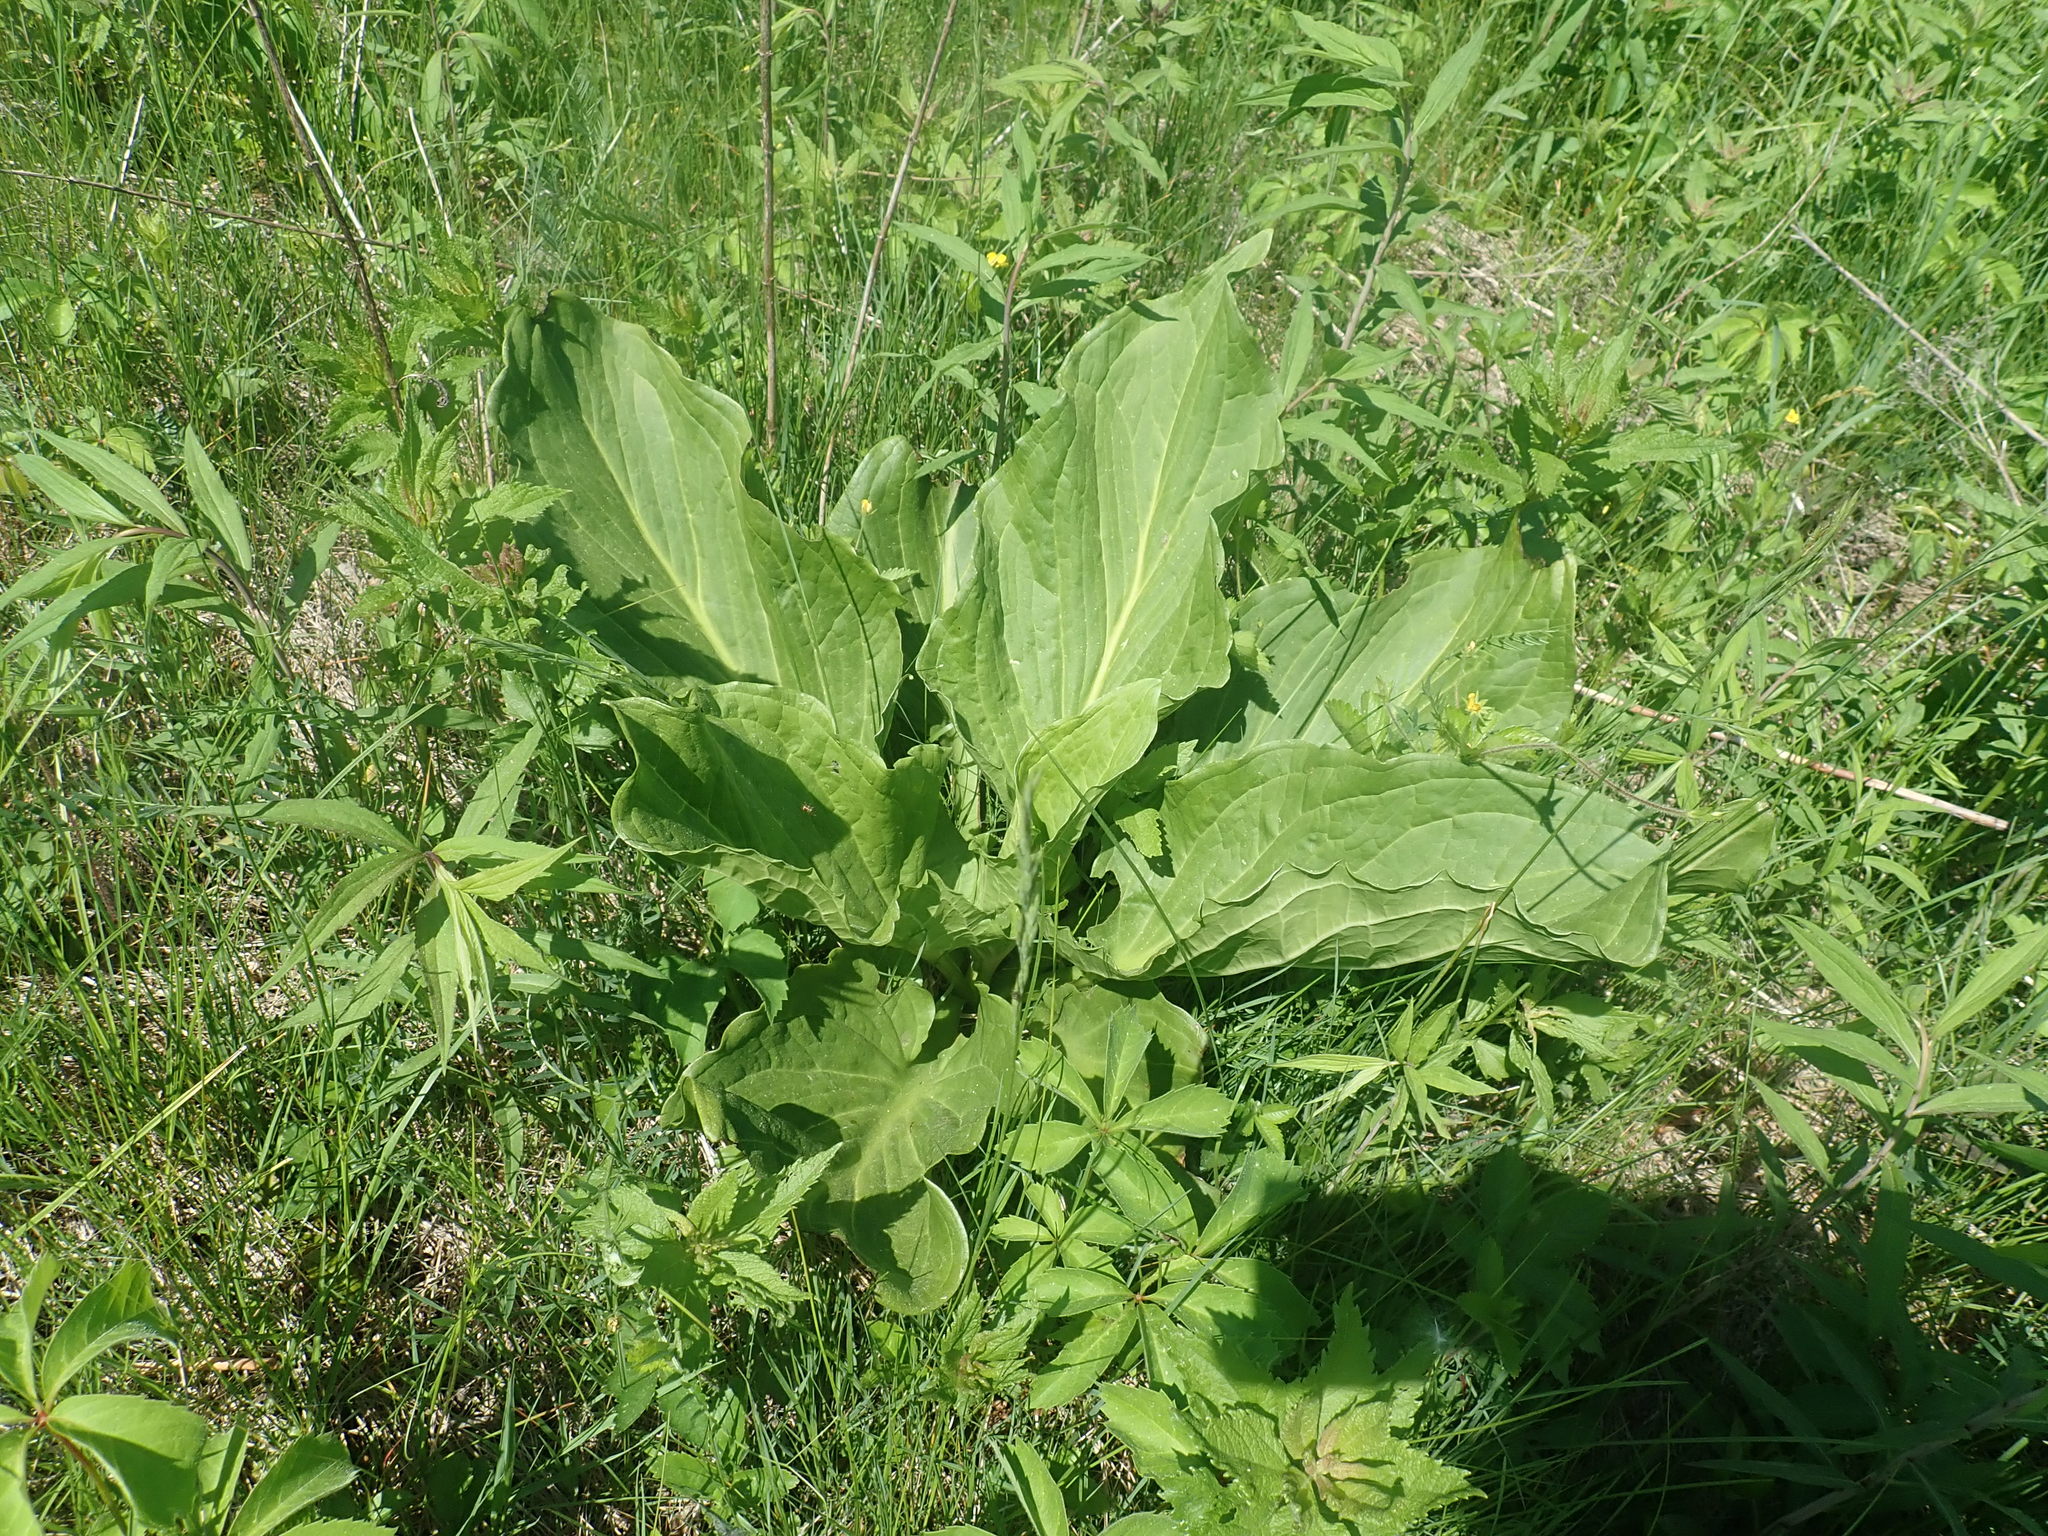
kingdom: Plantae
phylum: Tracheophyta
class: Liliopsida
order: Alismatales
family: Araceae
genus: Symplocarpus
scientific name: Symplocarpus foetidus
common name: Eastern skunk cabbage
